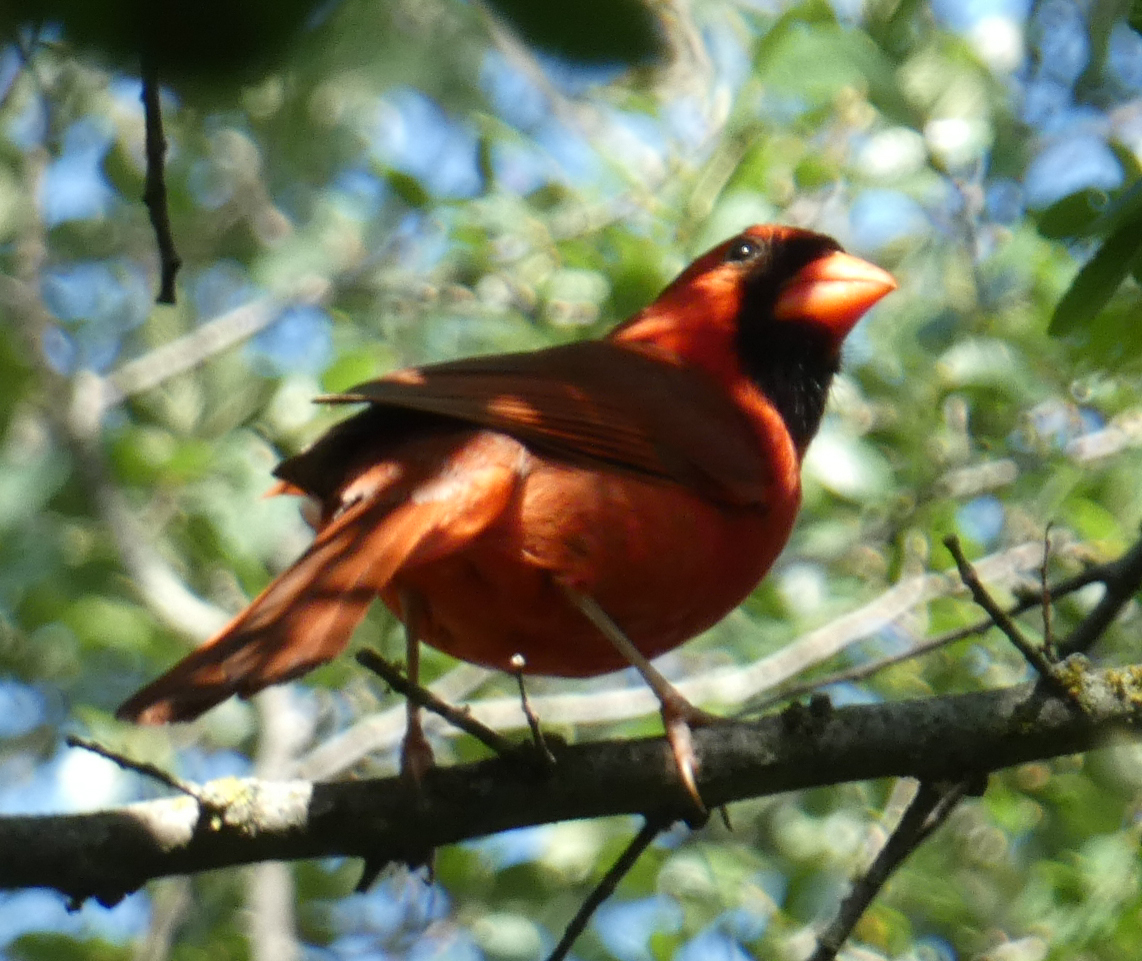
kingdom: Animalia
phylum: Chordata
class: Aves
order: Passeriformes
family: Cardinalidae
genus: Cardinalis
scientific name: Cardinalis cardinalis
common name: Northern cardinal
